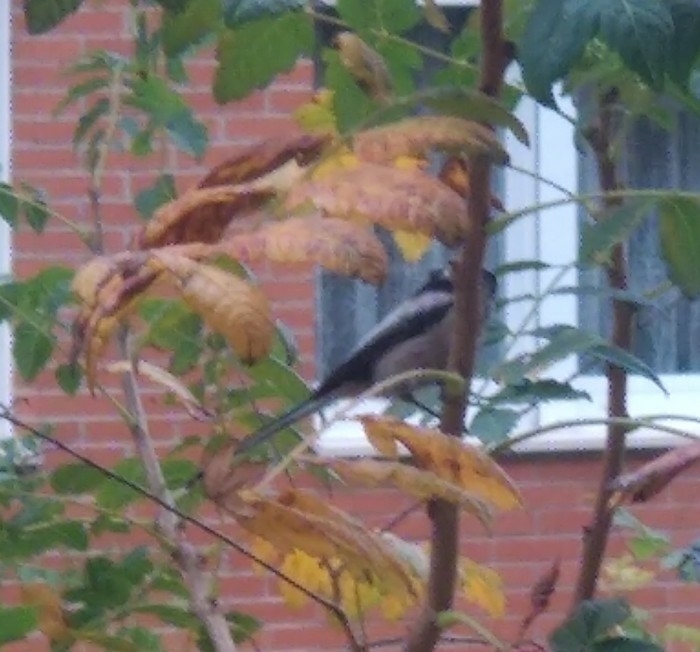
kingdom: Animalia
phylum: Chordata
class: Aves
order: Passeriformes
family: Aegithalidae
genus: Aegithalos
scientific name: Aegithalos caudatus
